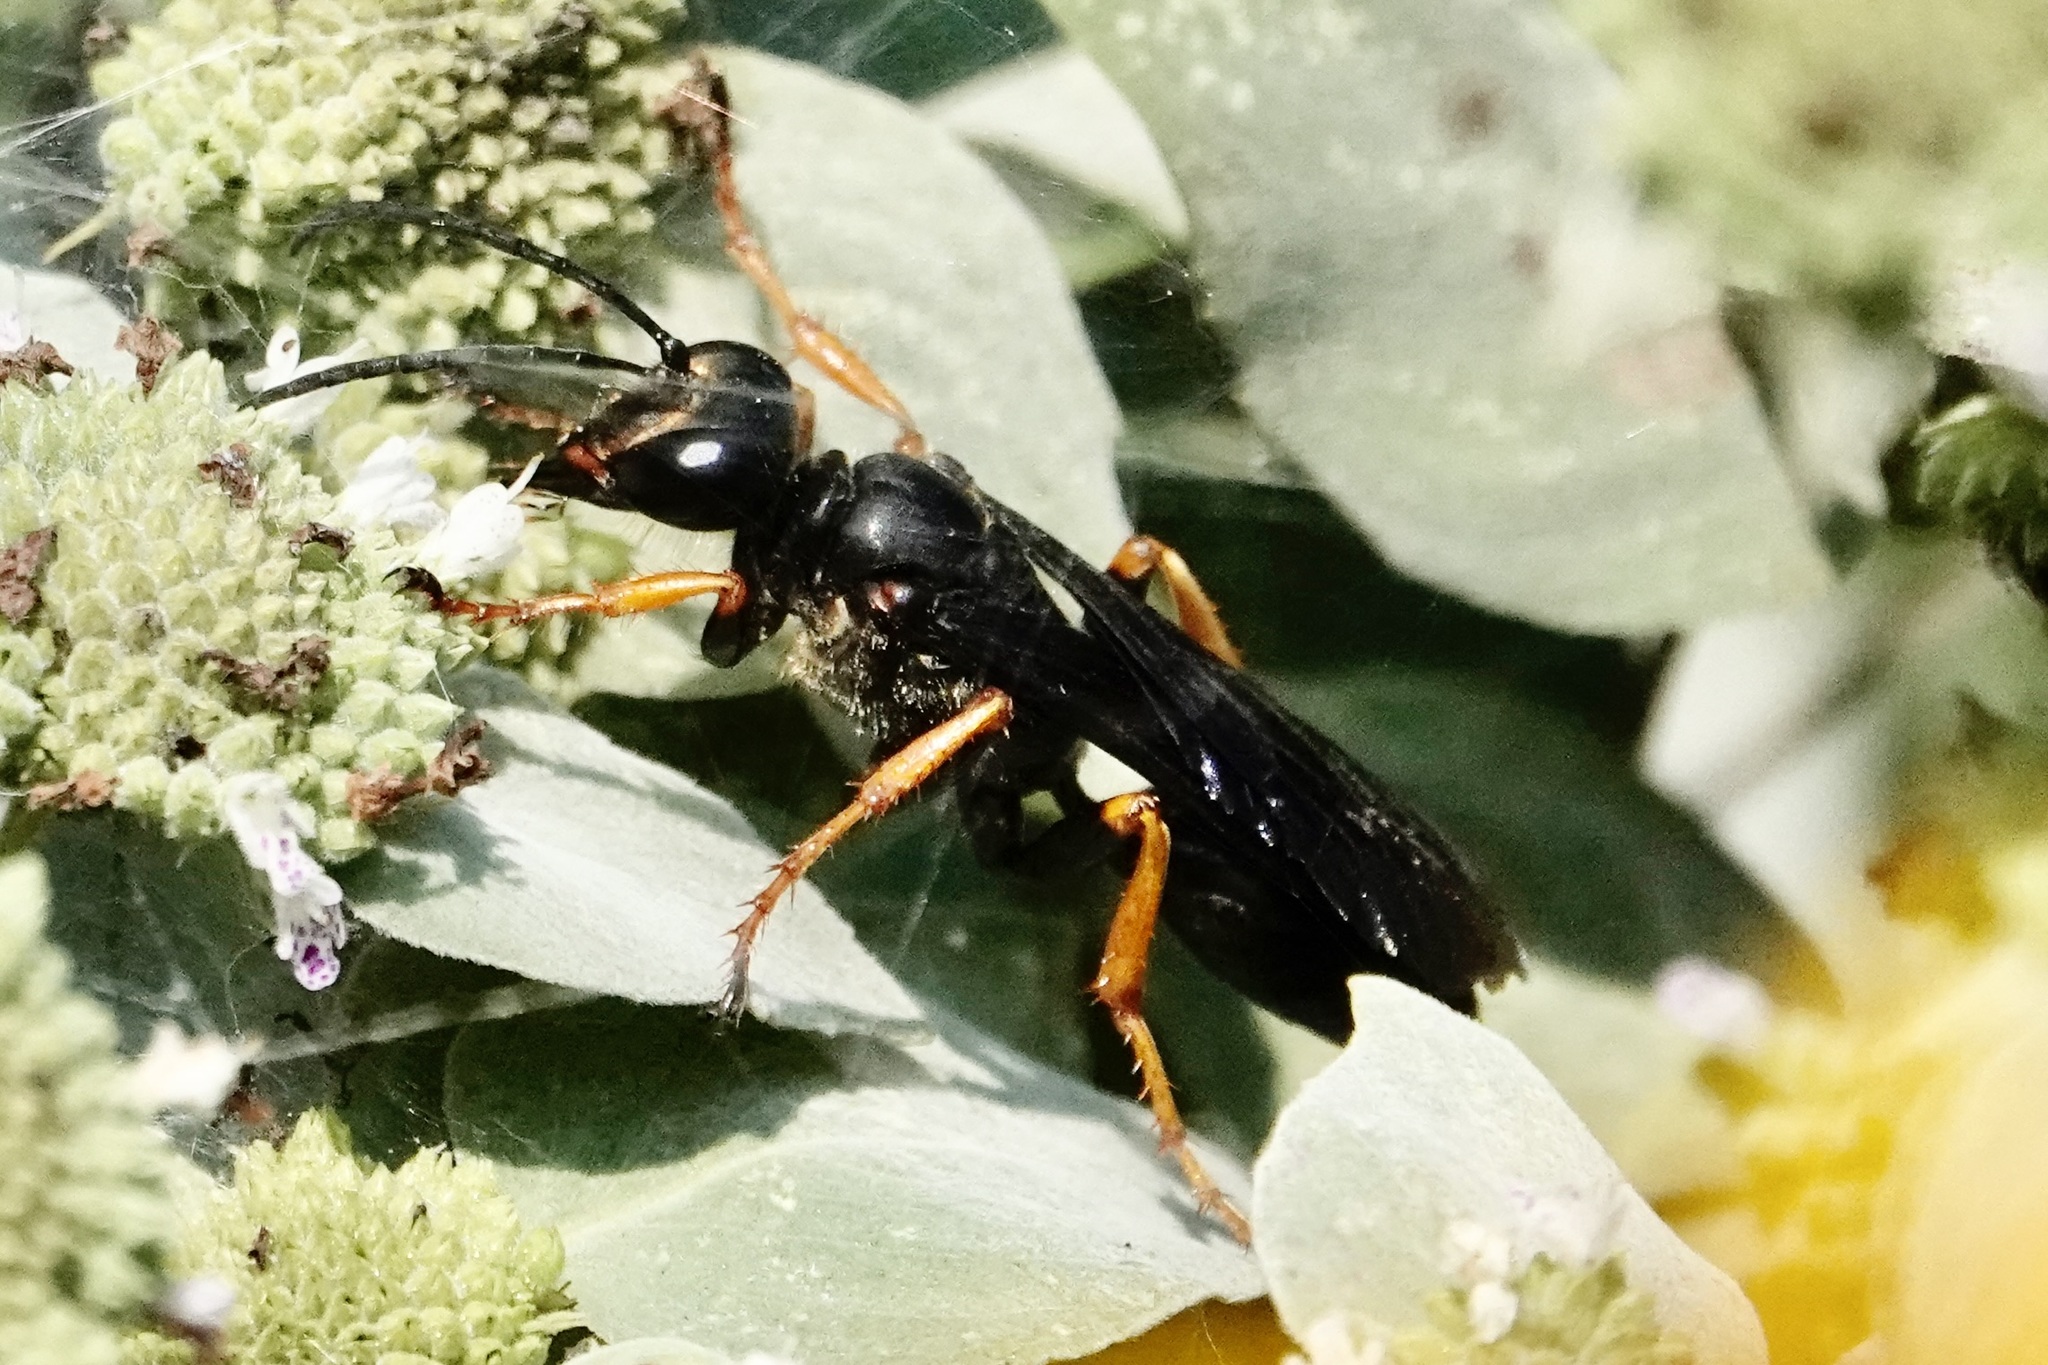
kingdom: Animalia
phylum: Arthropoda
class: Insecta
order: Hymenoptera
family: Sphecidae
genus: Sphex
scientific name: Sphex nudus
